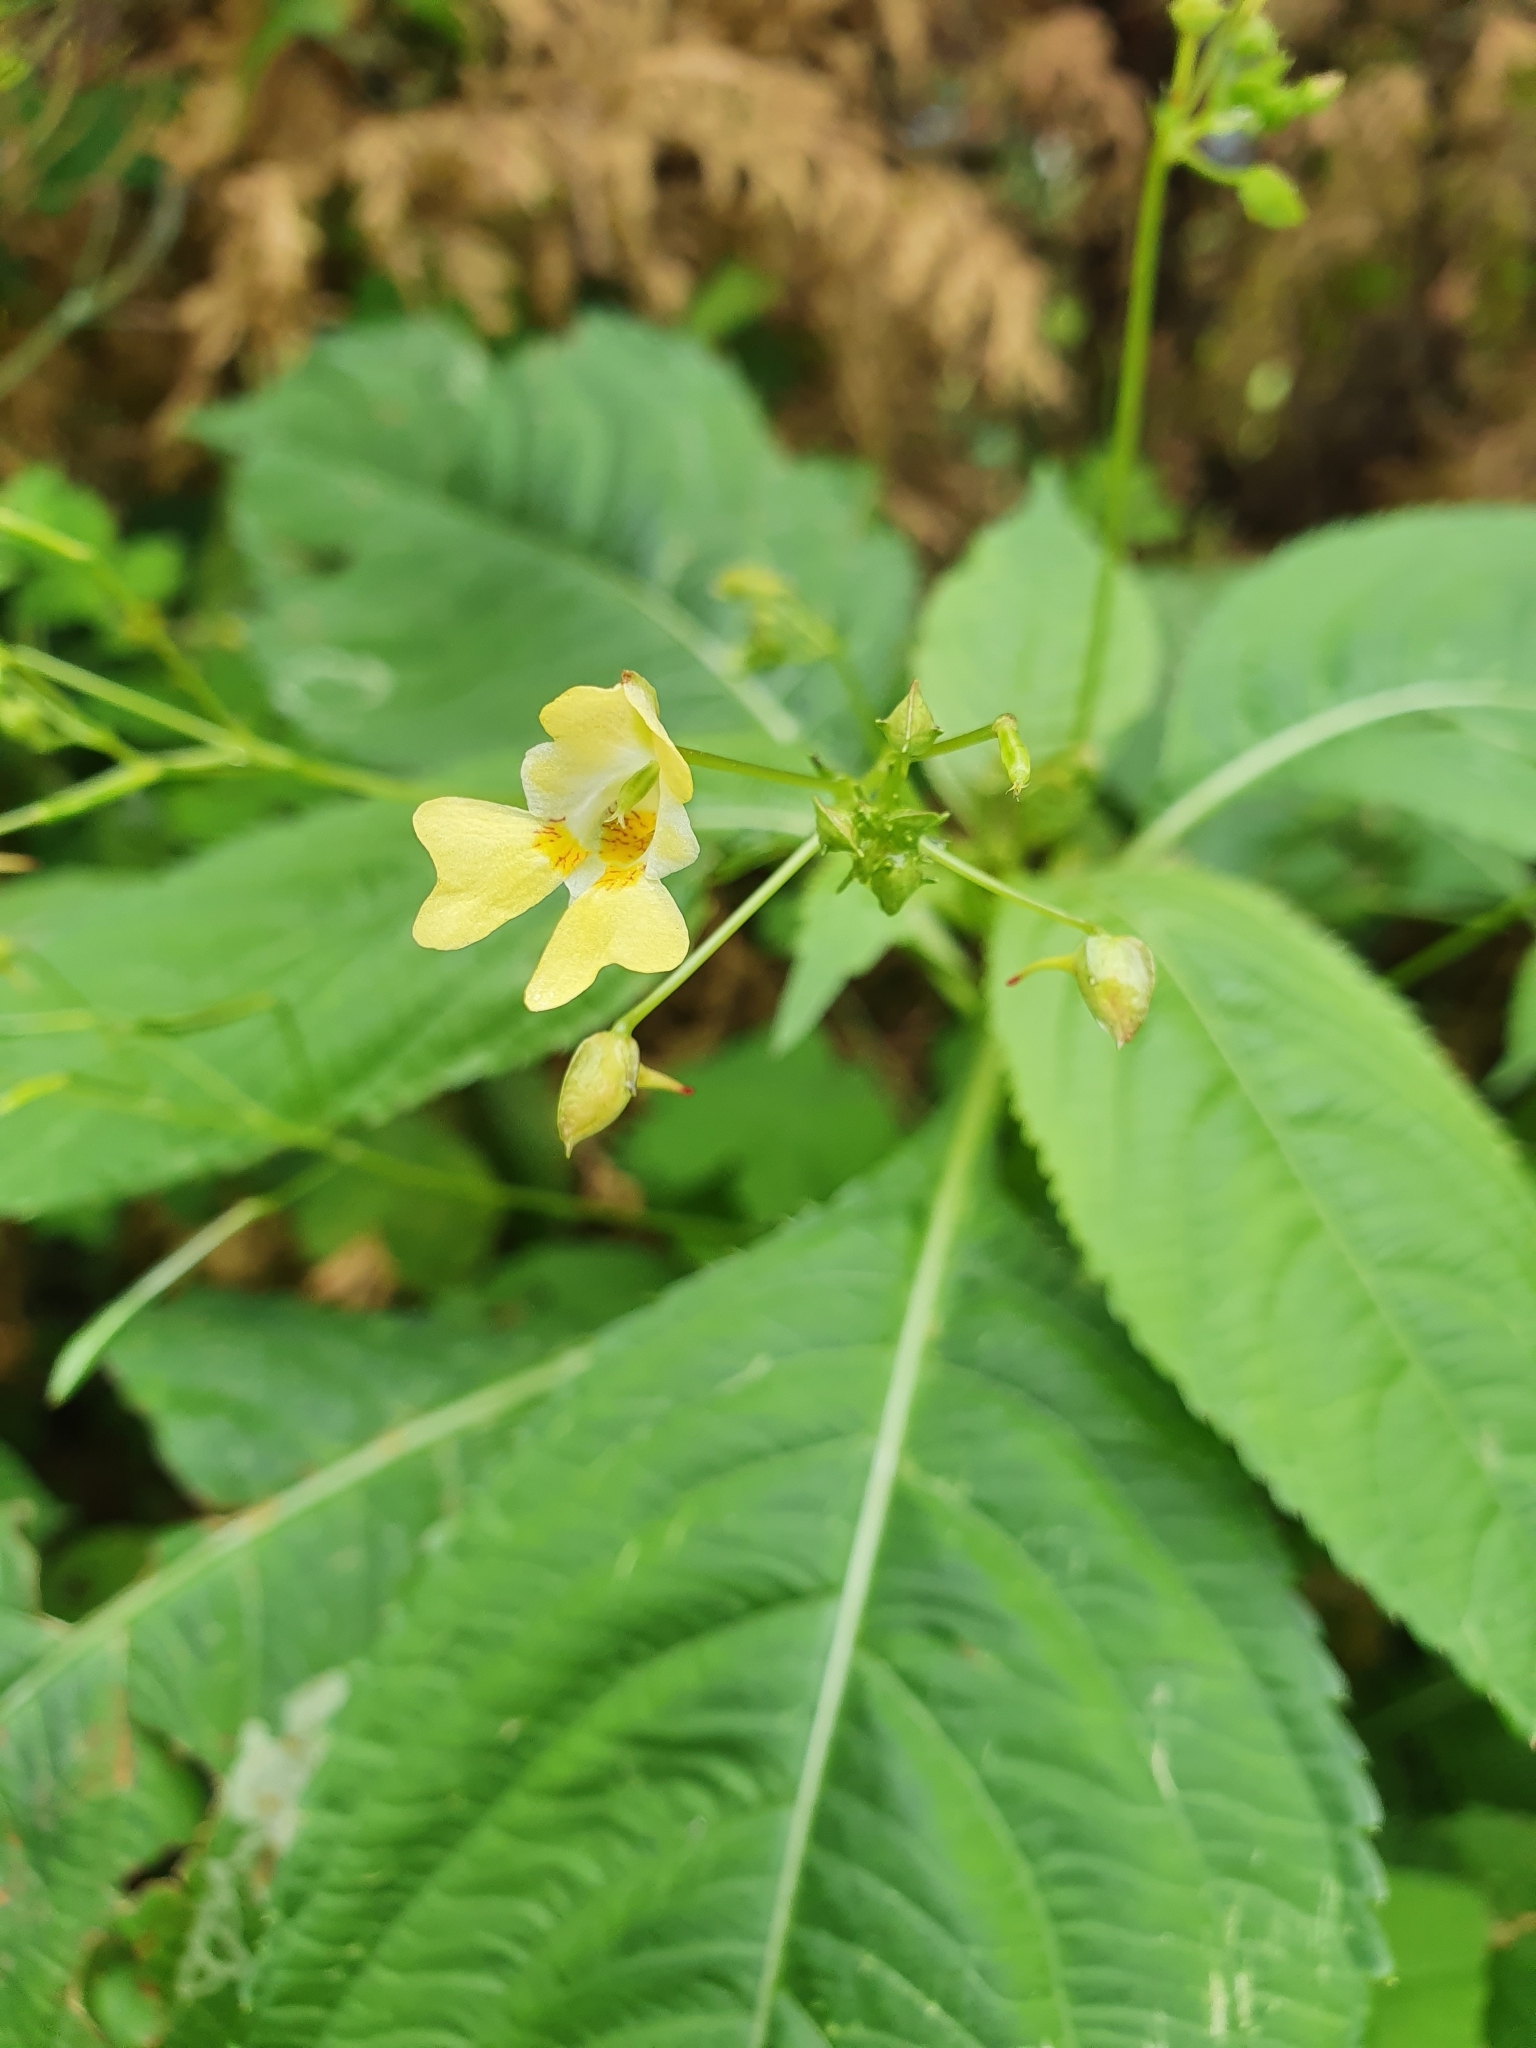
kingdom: Plantae
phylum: Tracheophyta
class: Magnoliopsida
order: Ericales
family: Balsaminaceae
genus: Impatiens
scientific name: Impatiens parviflora
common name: Small balsam
